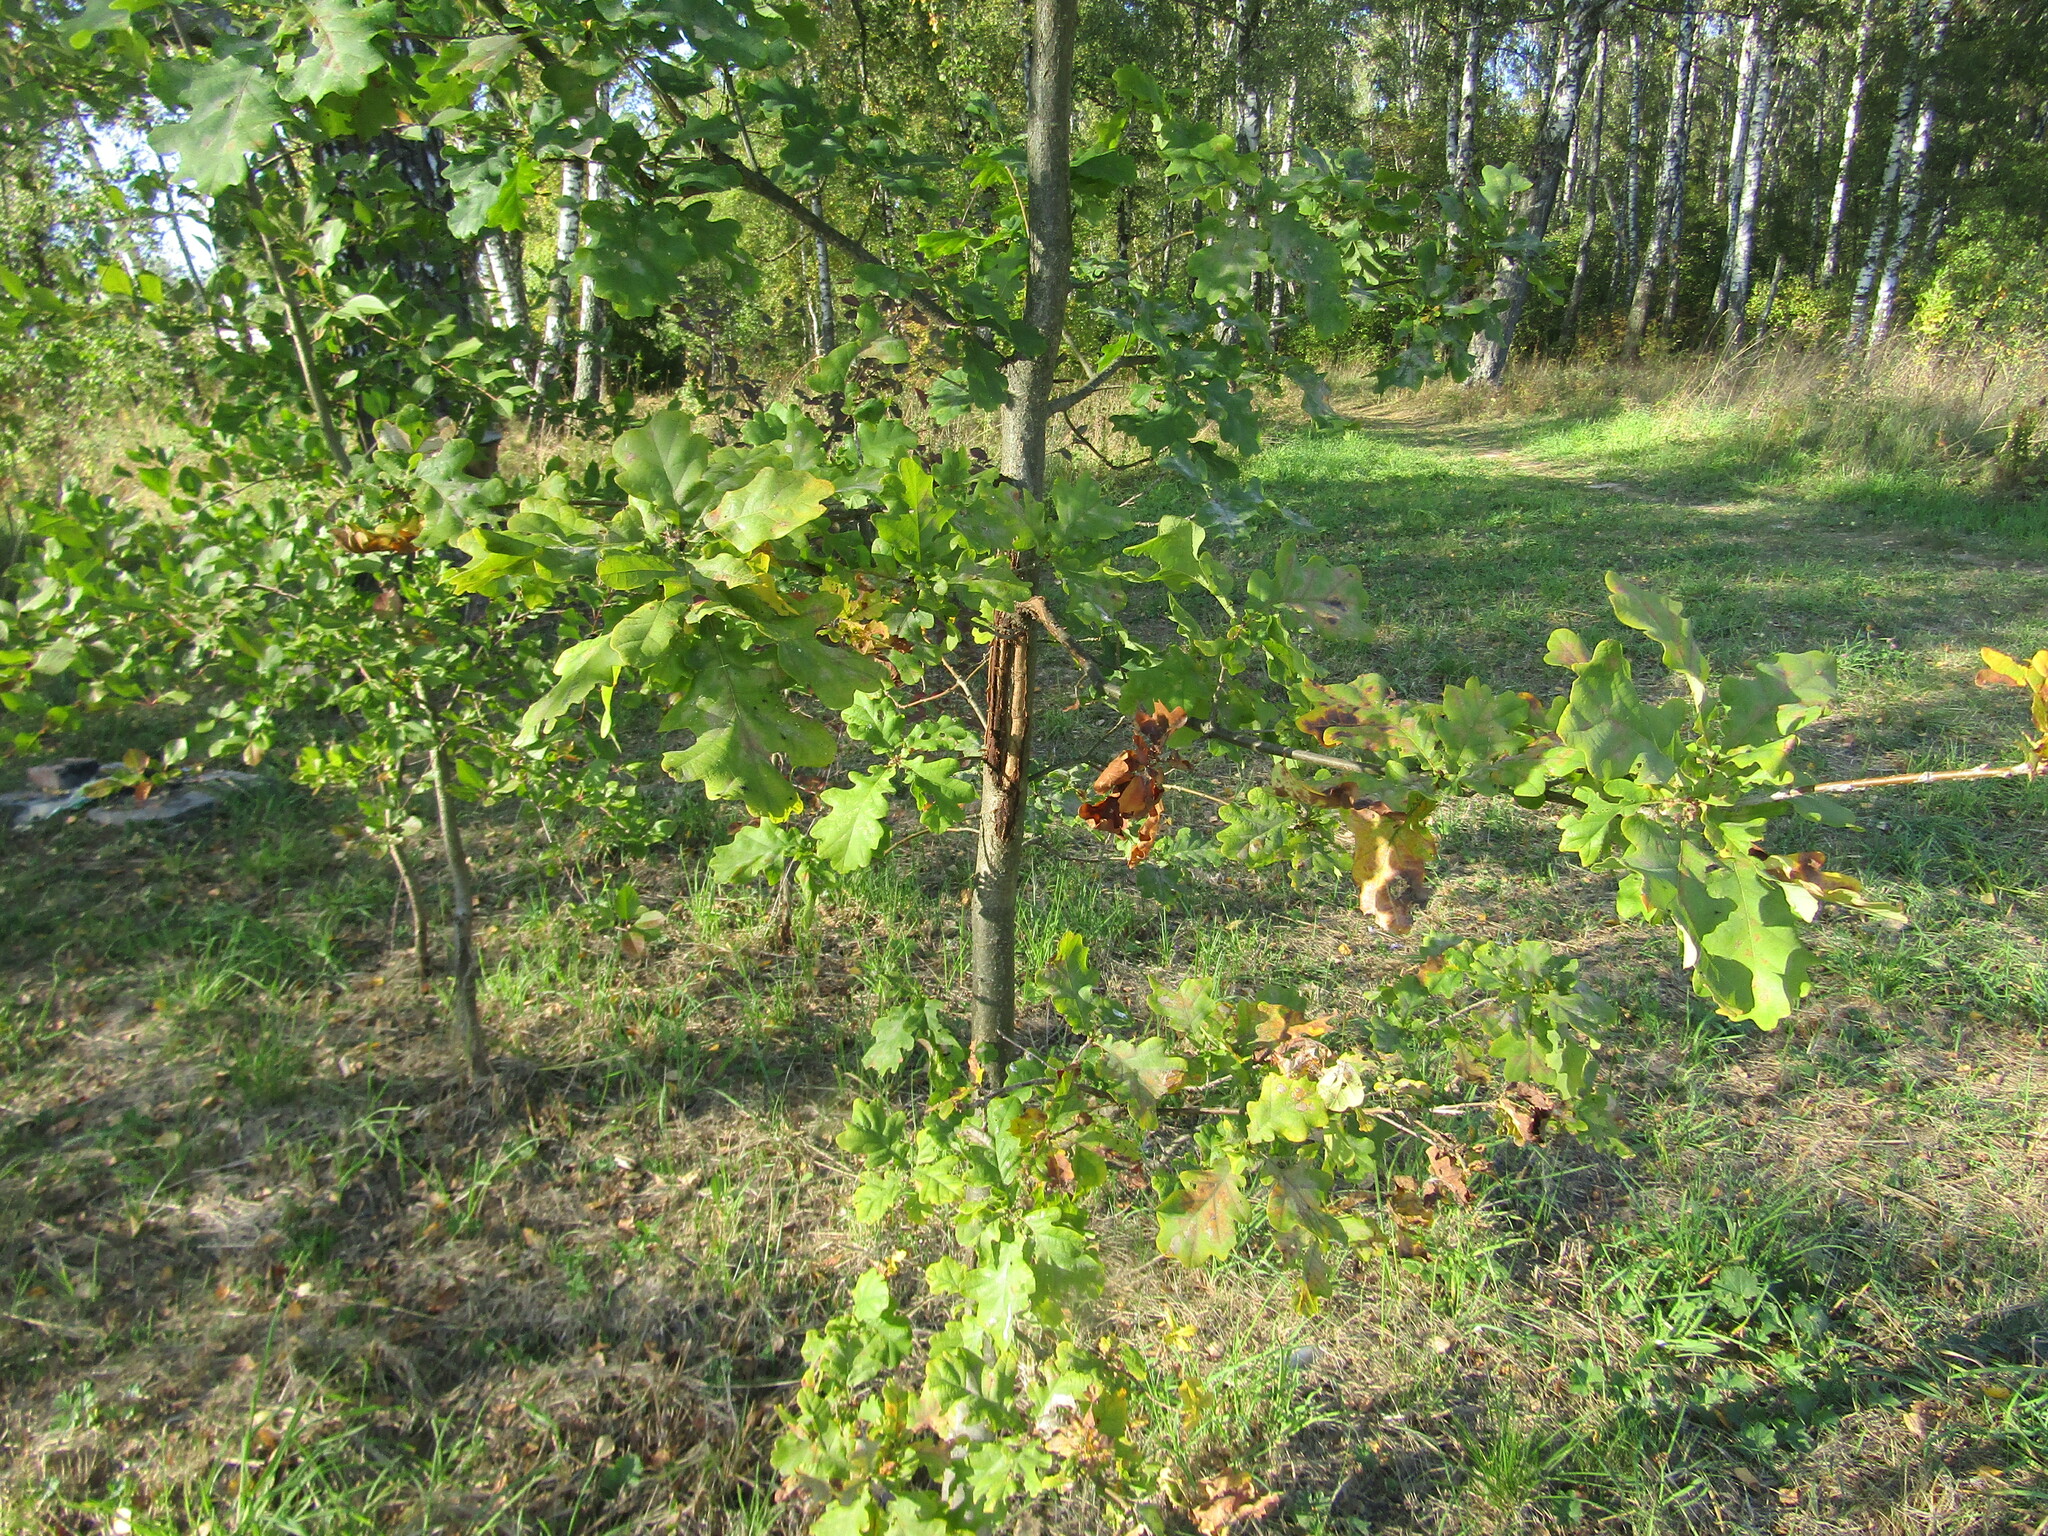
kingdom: Plantae
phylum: Tracheophyta
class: Magnoliopsida
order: Fagales
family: Fagaceae
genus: Quercus
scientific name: Quercus robur
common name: Pedunculate oak
